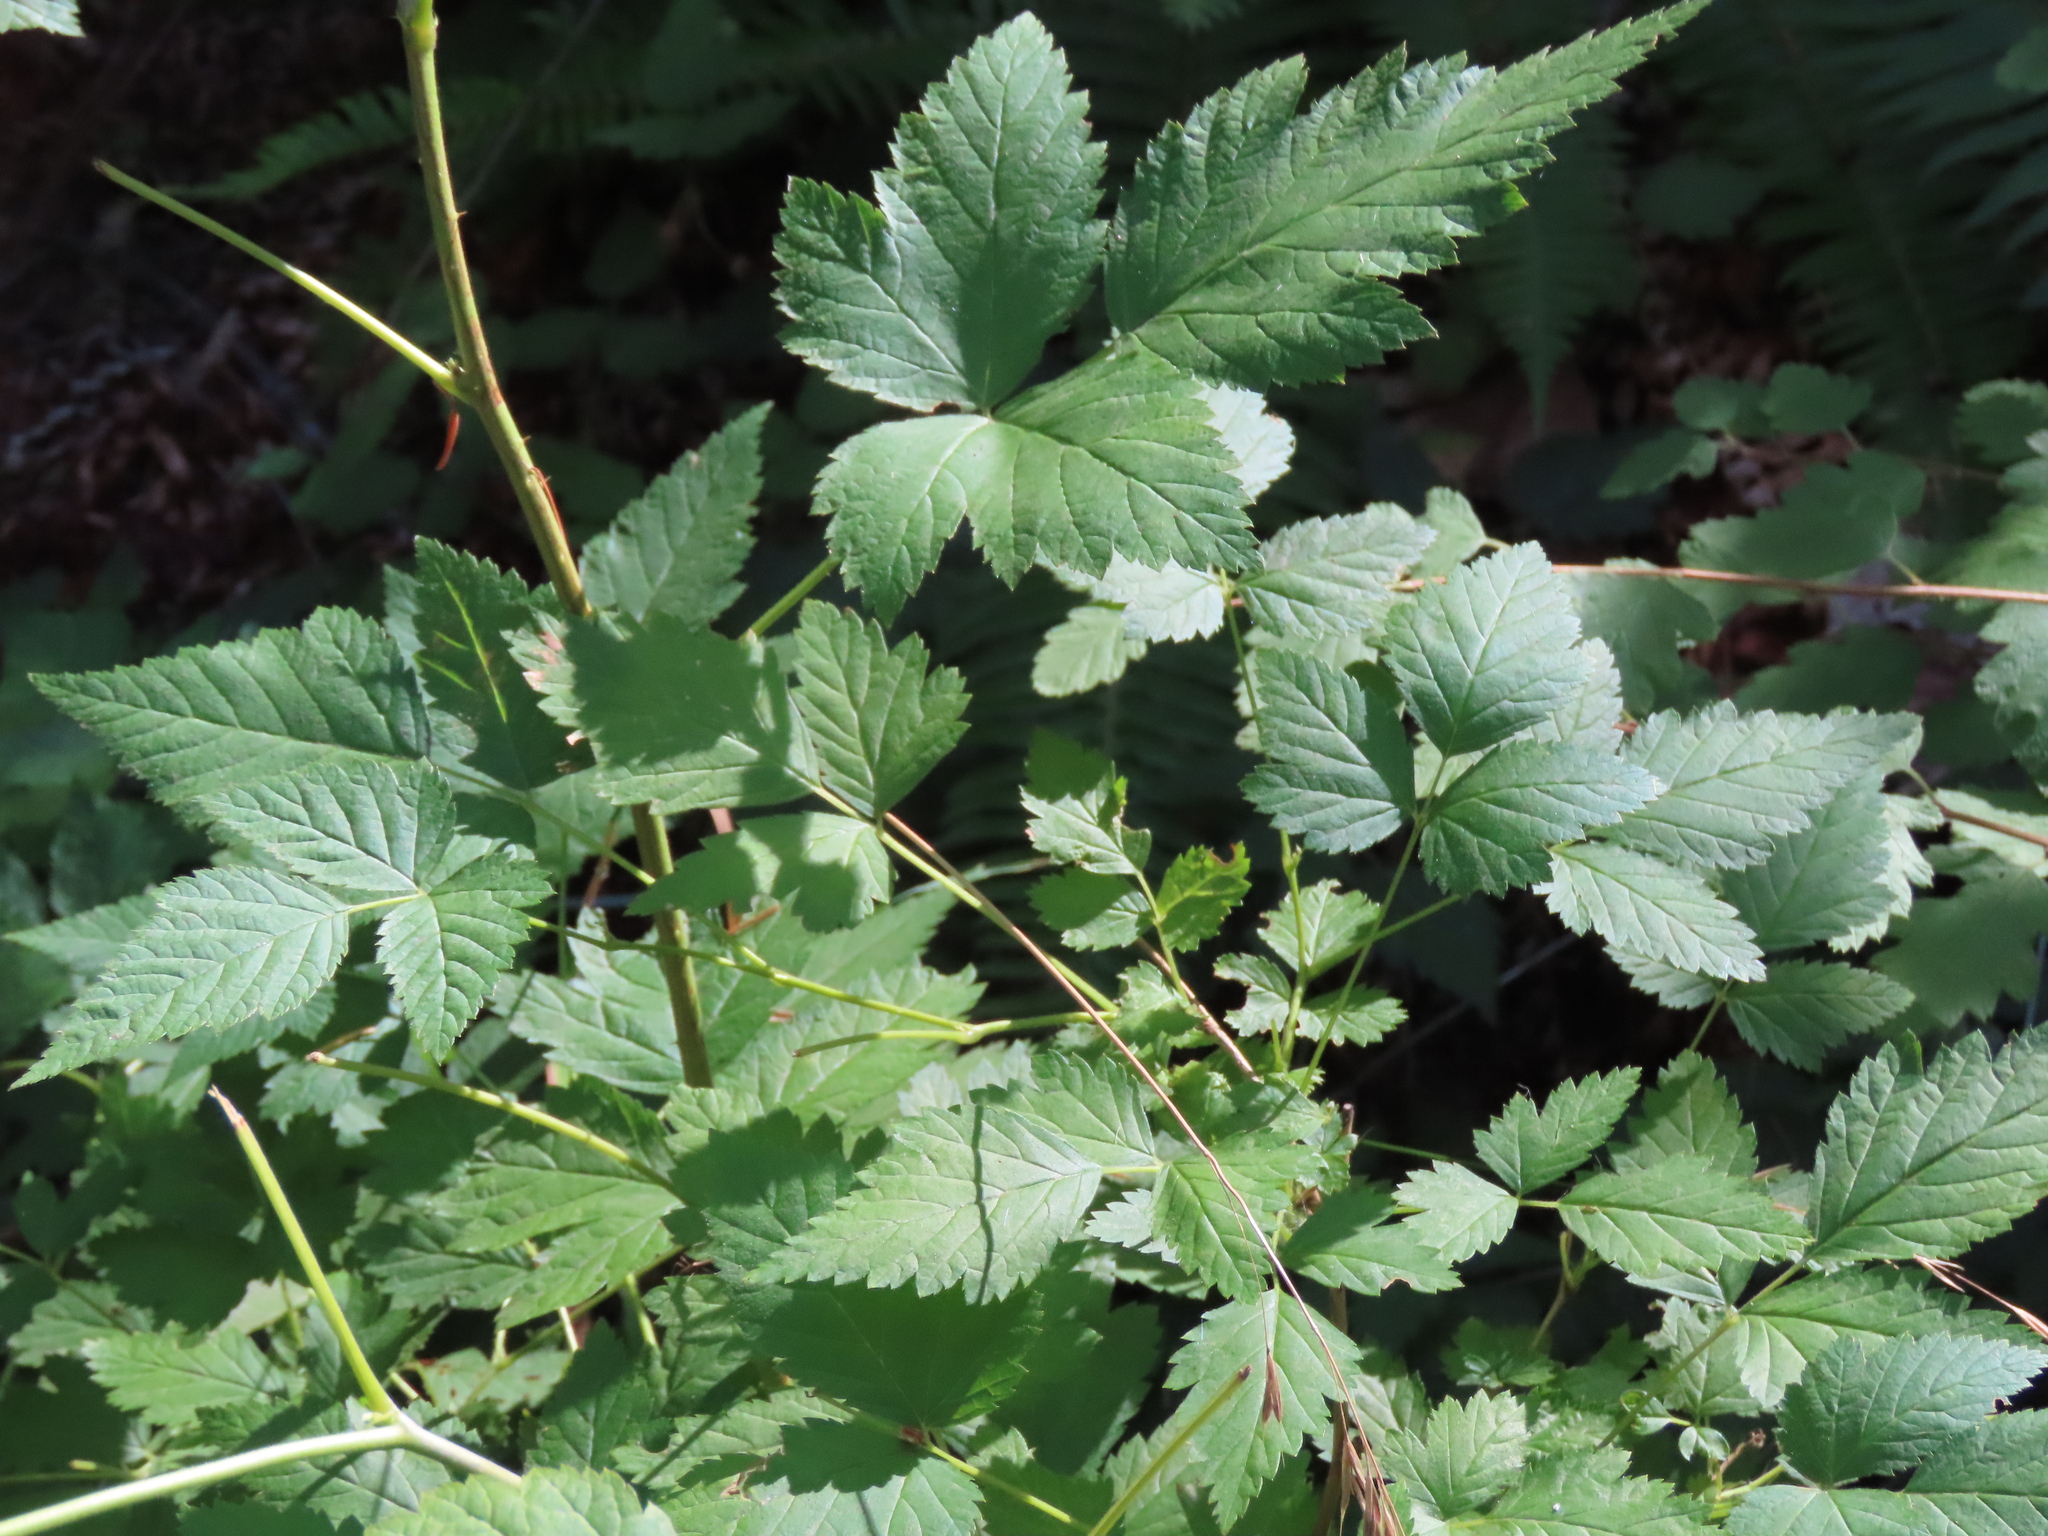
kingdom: Plantae
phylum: Tracheophyta
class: Magnoliopsida
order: Rosales
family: Rosaceae
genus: Rubus
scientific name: Rubus spectabilis
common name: Salmonberry
